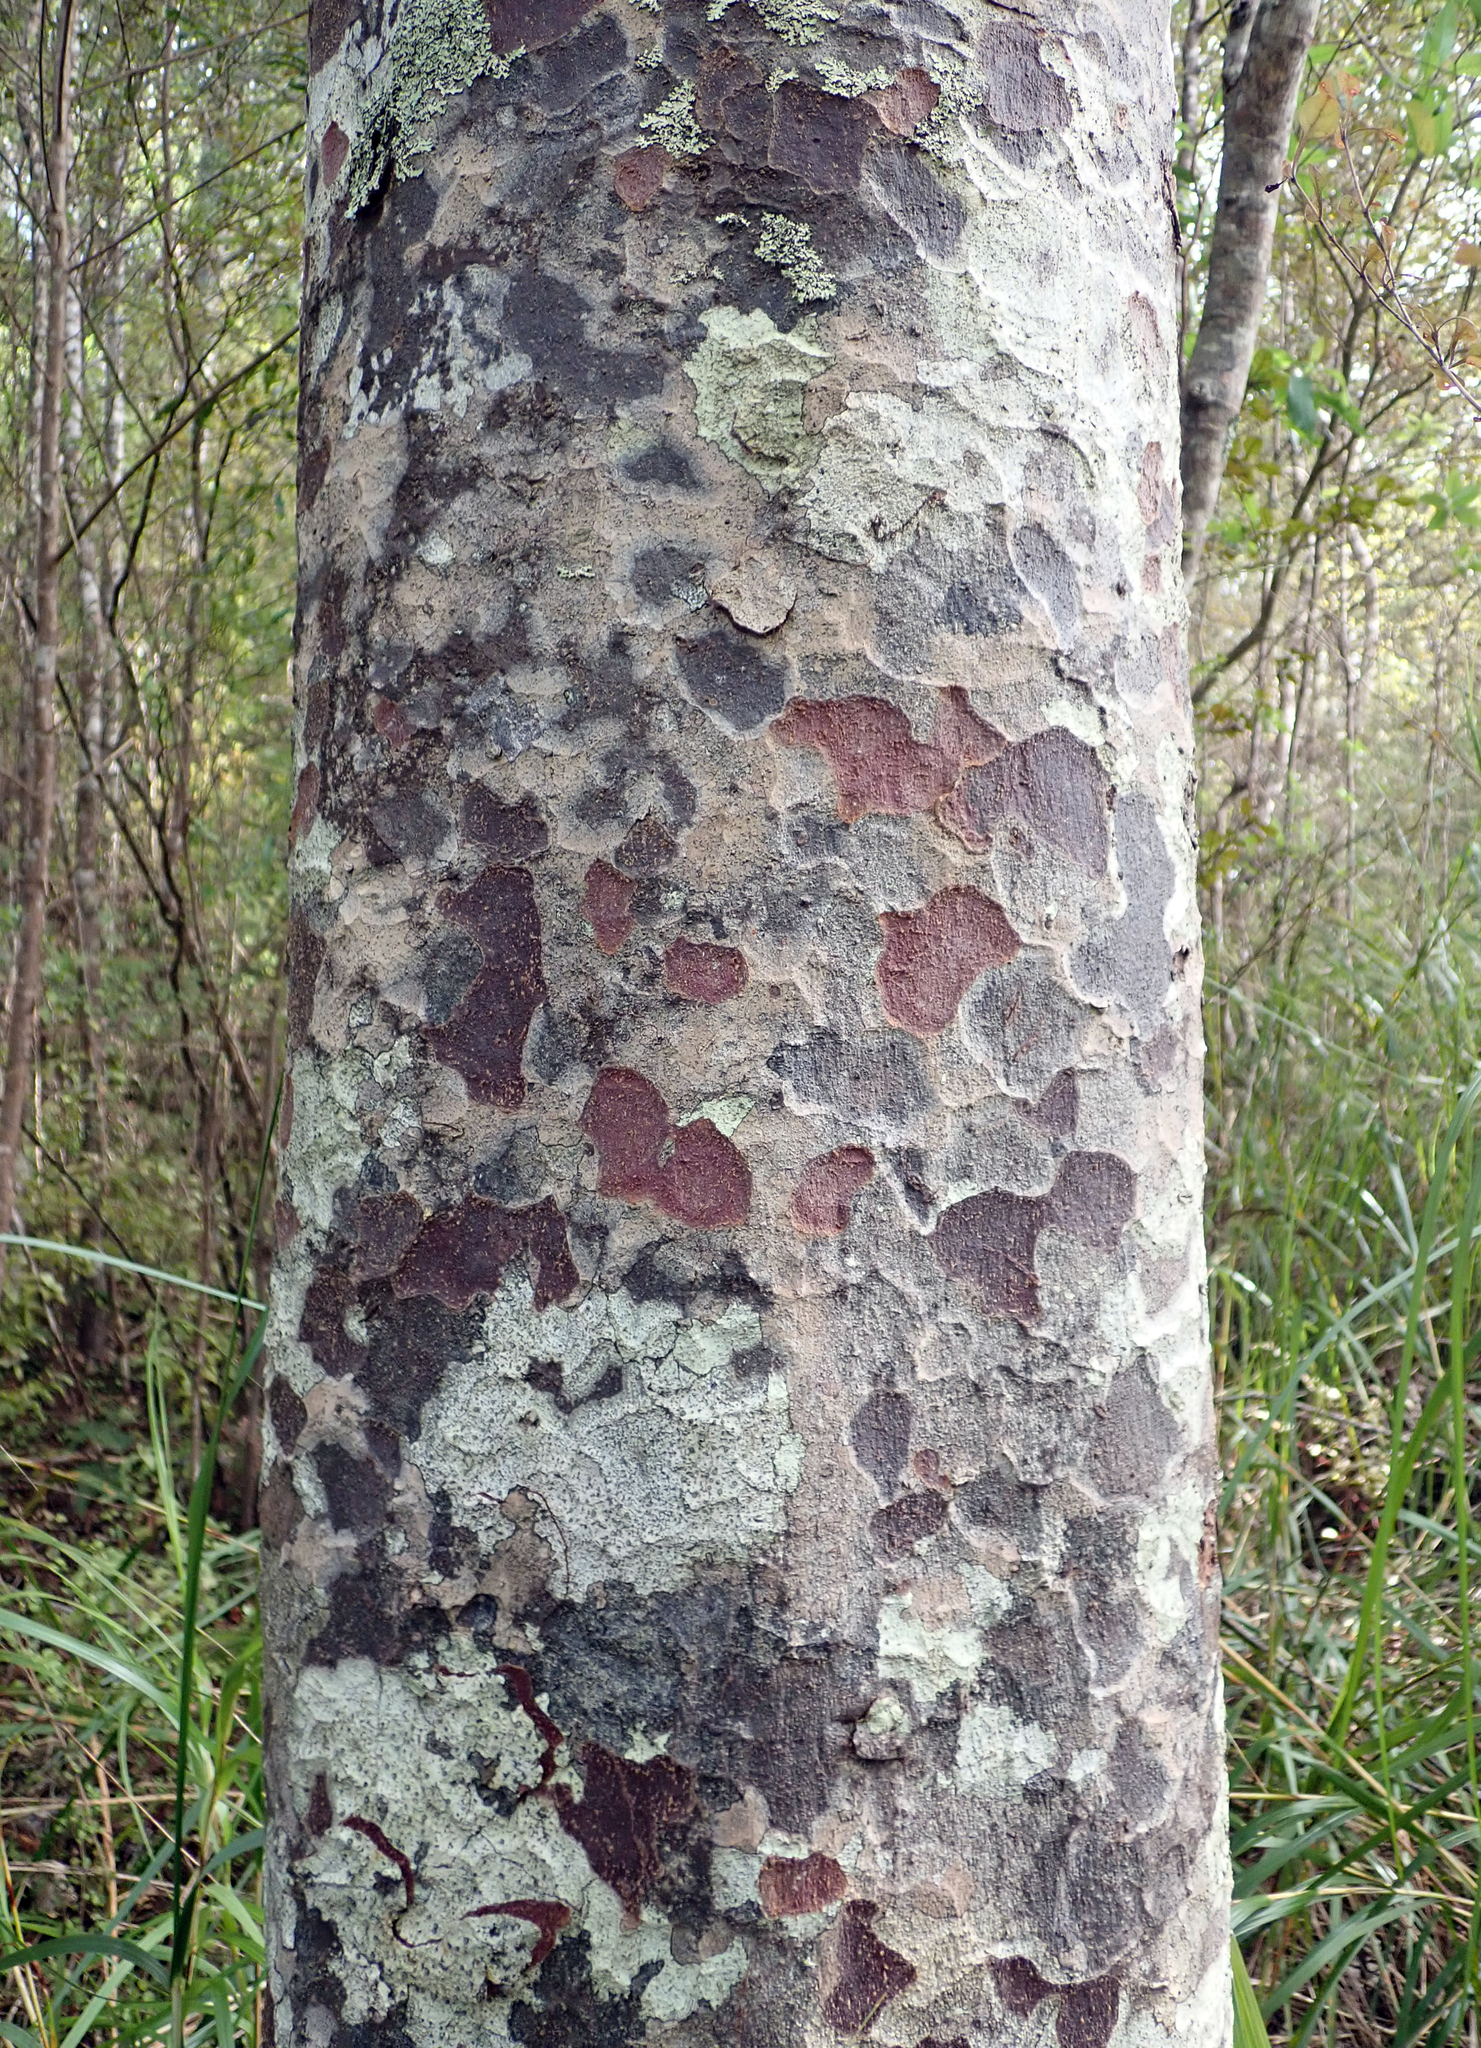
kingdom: Plantae
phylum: Tracheophyta
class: Pinopsida
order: Pinales
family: Podocarpaceae
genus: Prumnopitys
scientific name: Prumnopitys taxifolia
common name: Matai
